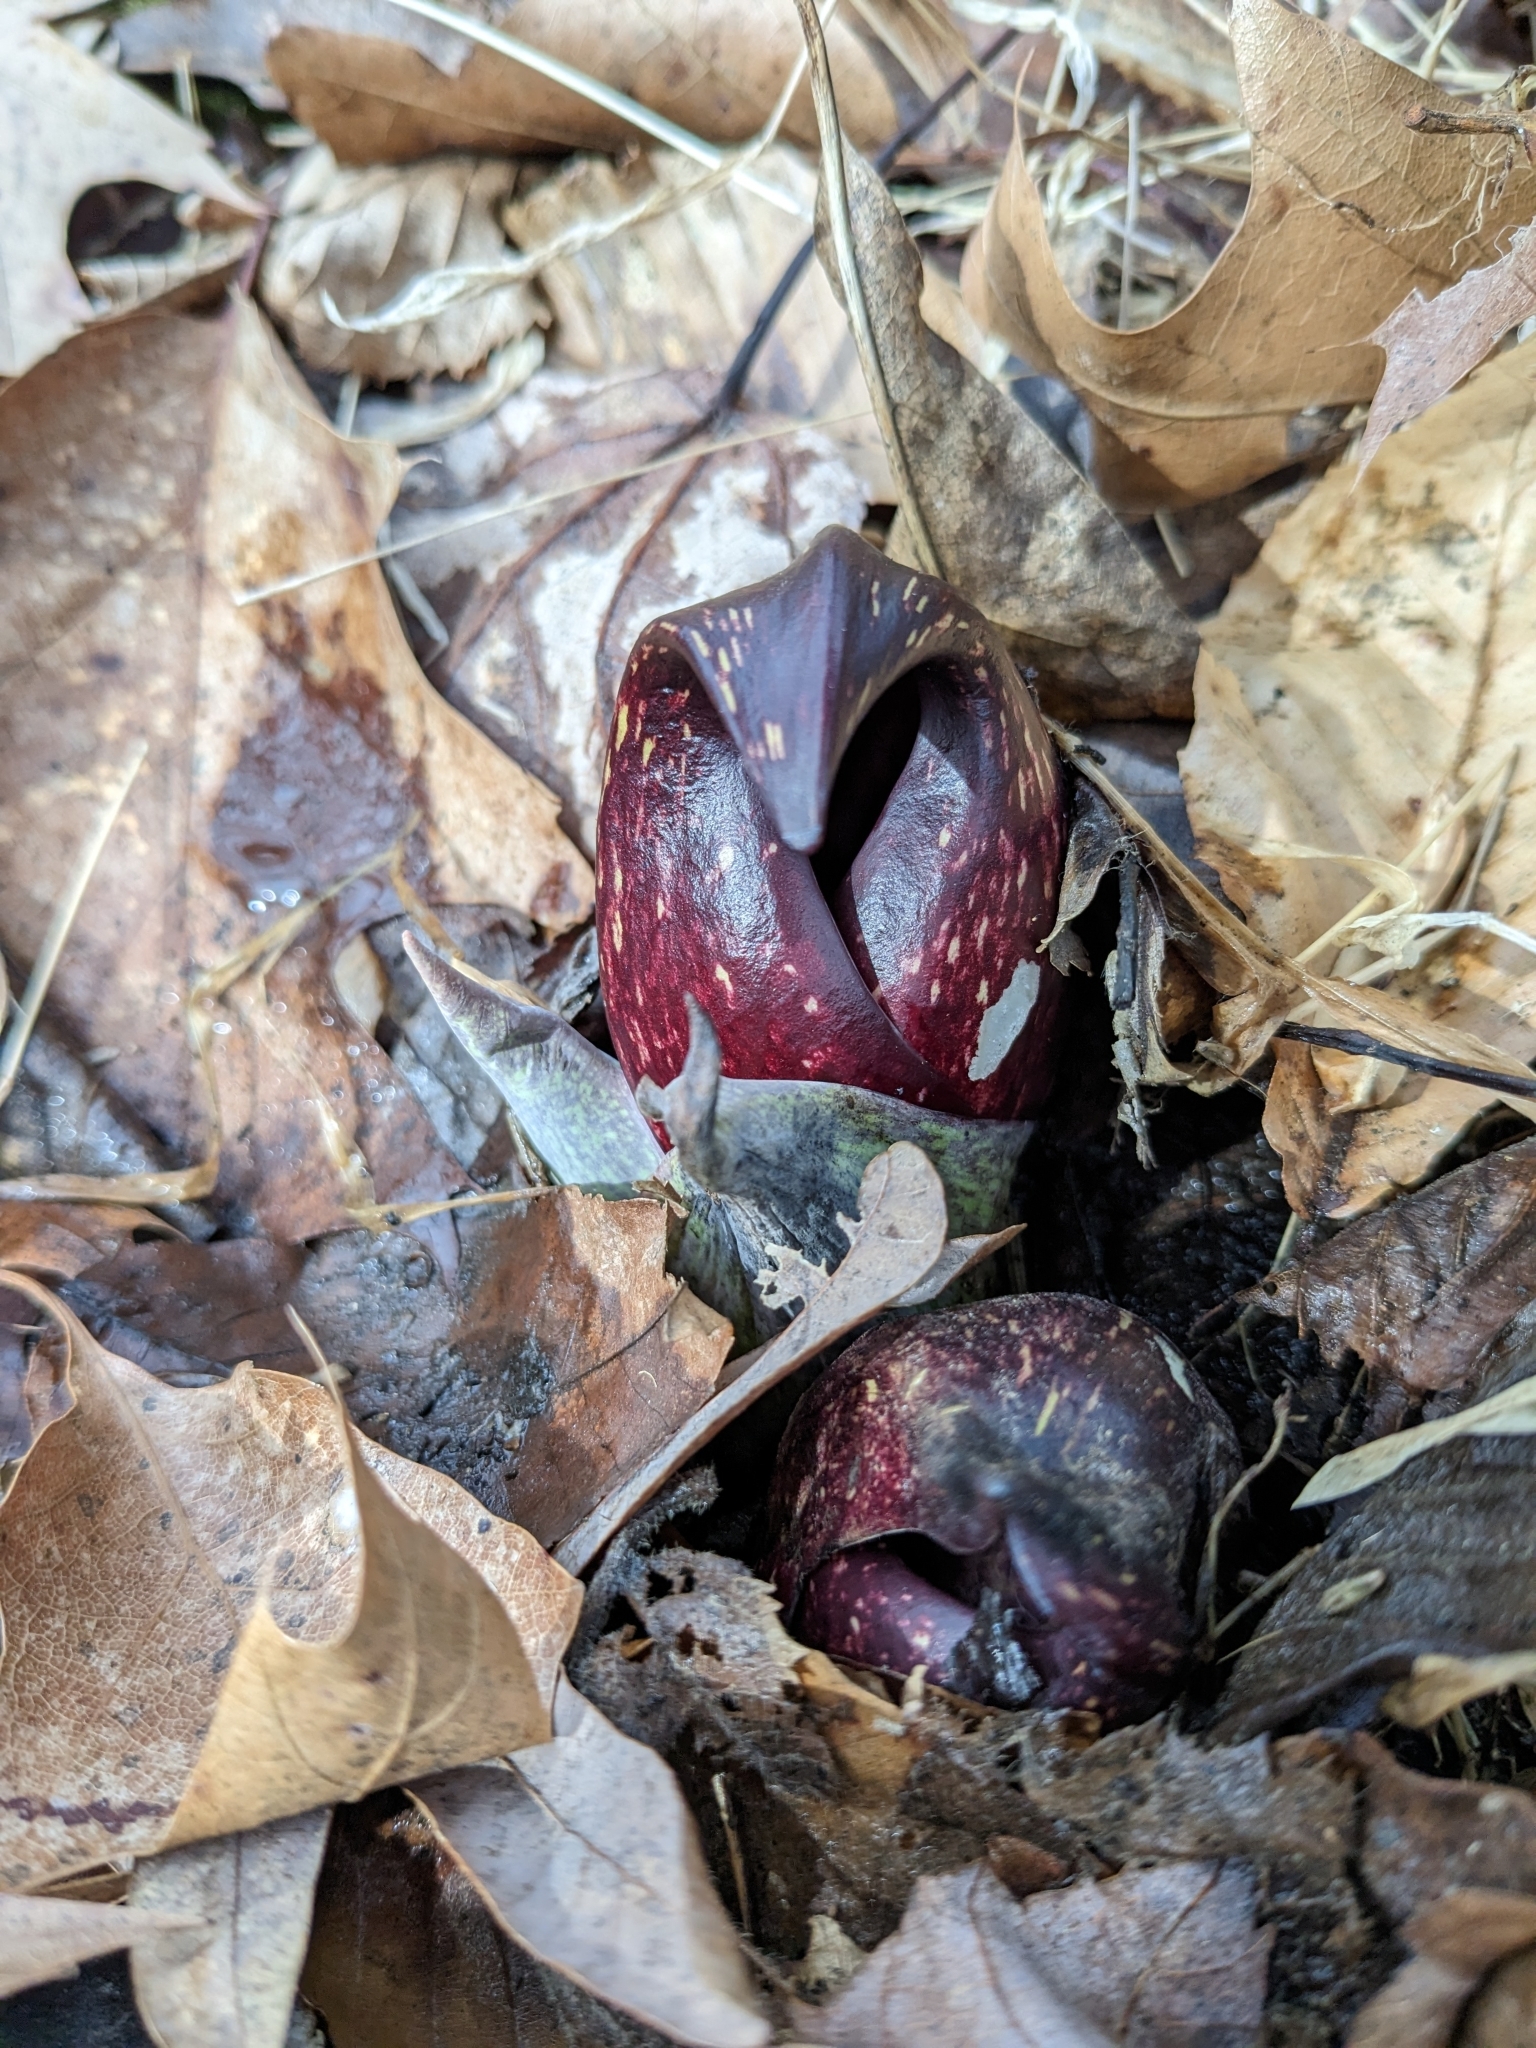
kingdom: Plantae
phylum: Tracheophyta
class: Liliopsida
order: Alismatales
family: Araceae
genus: Symplocarpus
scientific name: Symplocarpus foetidus
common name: Eastern skunk cabbage
